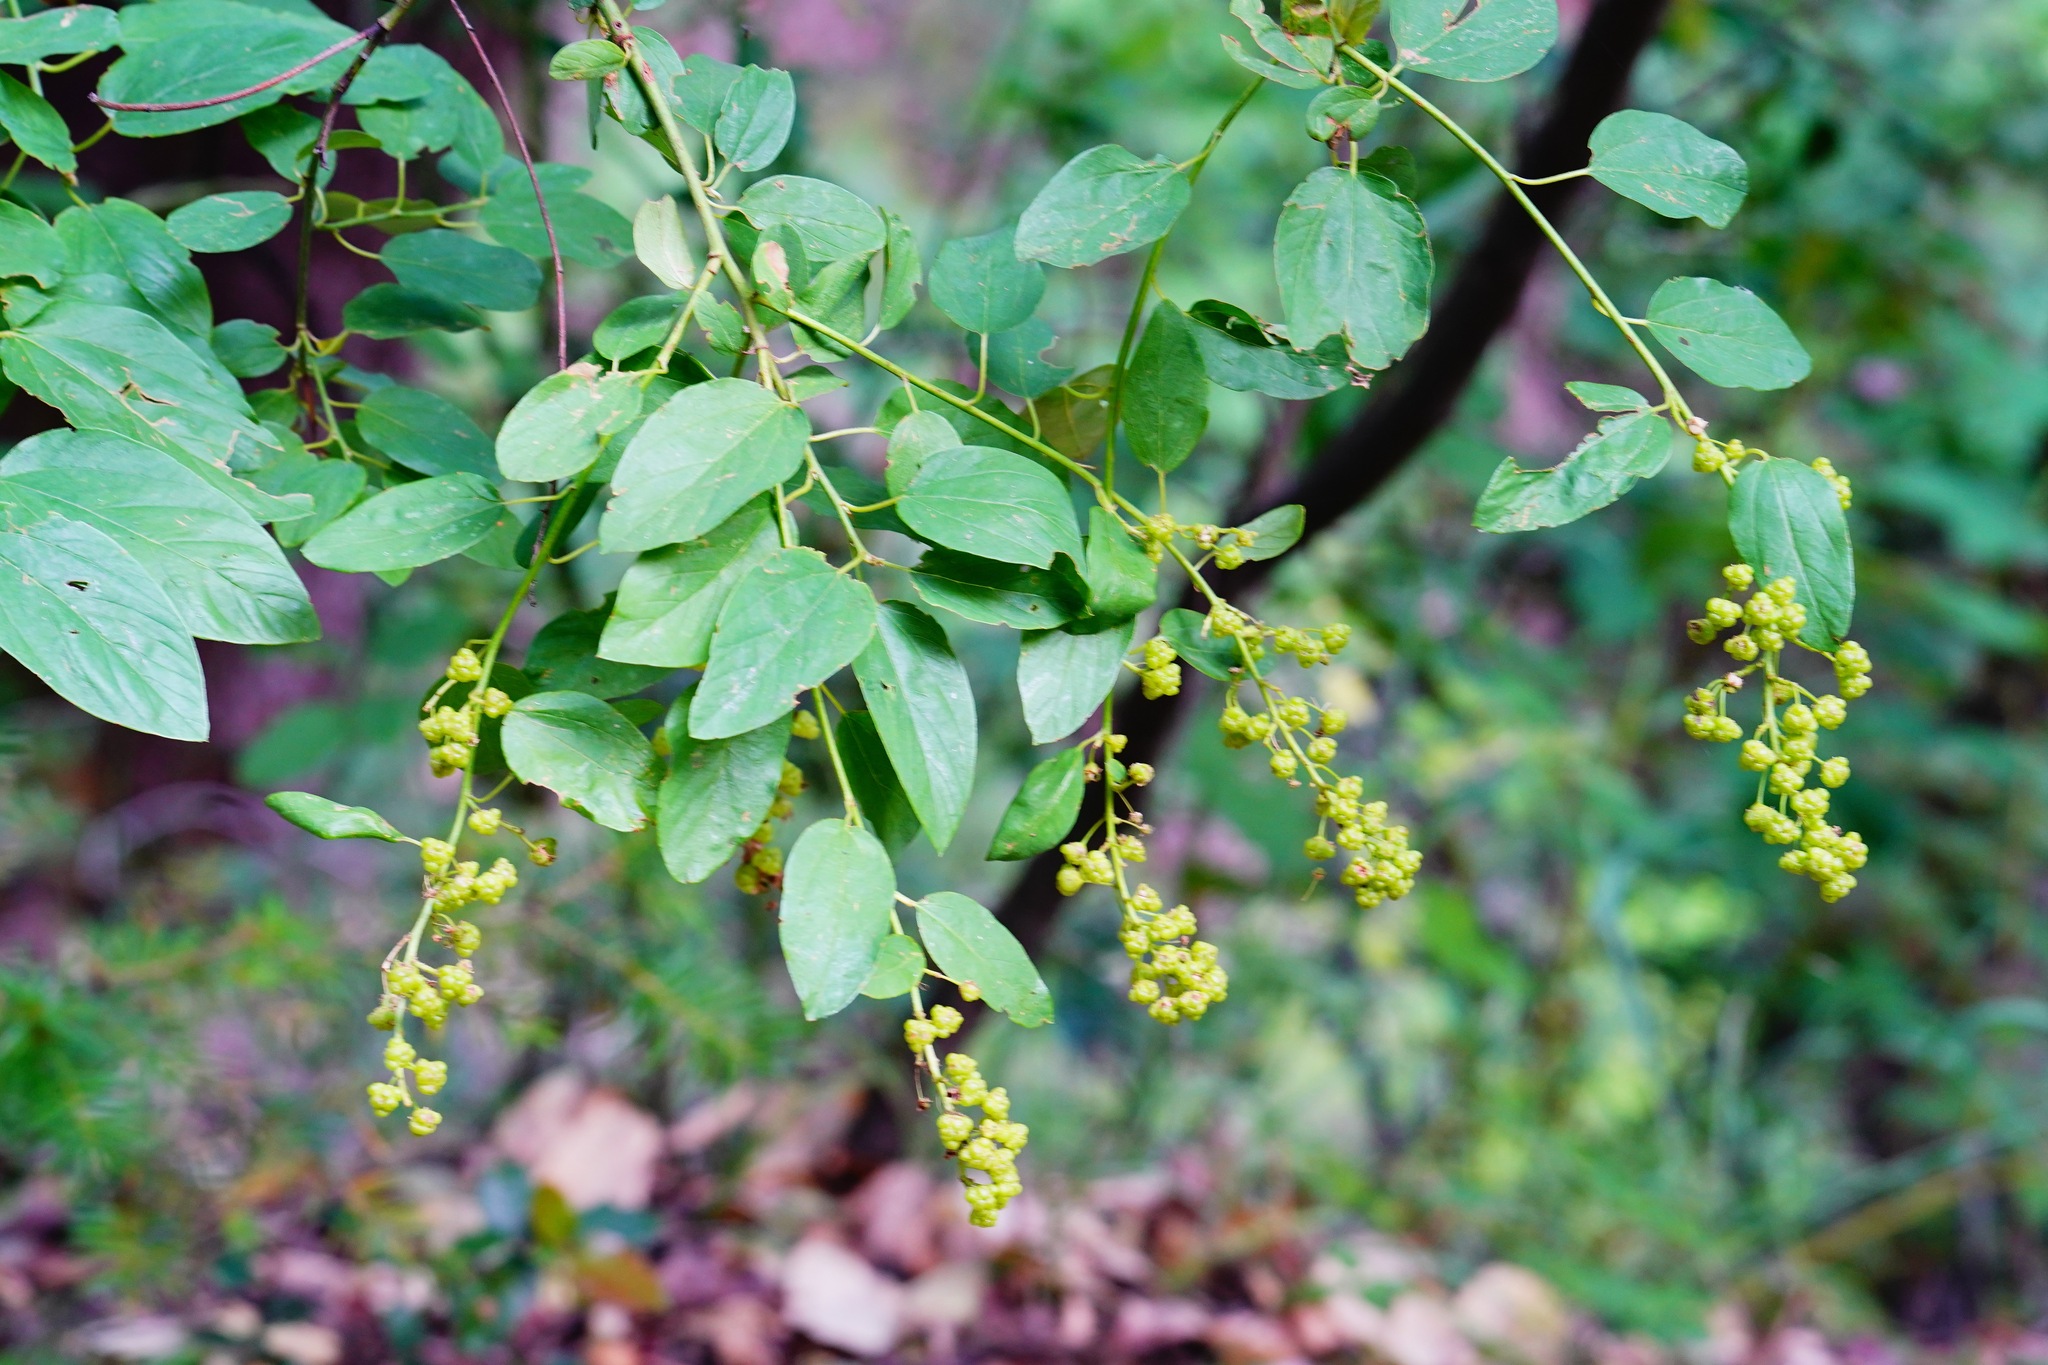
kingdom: Plantae
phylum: Tracheophyta
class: Magnoliopsida
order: Rosales
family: Rhamnaceae
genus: Ceanothus
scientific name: Ceanothus integerrimus
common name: Deerbrush ceanothus
